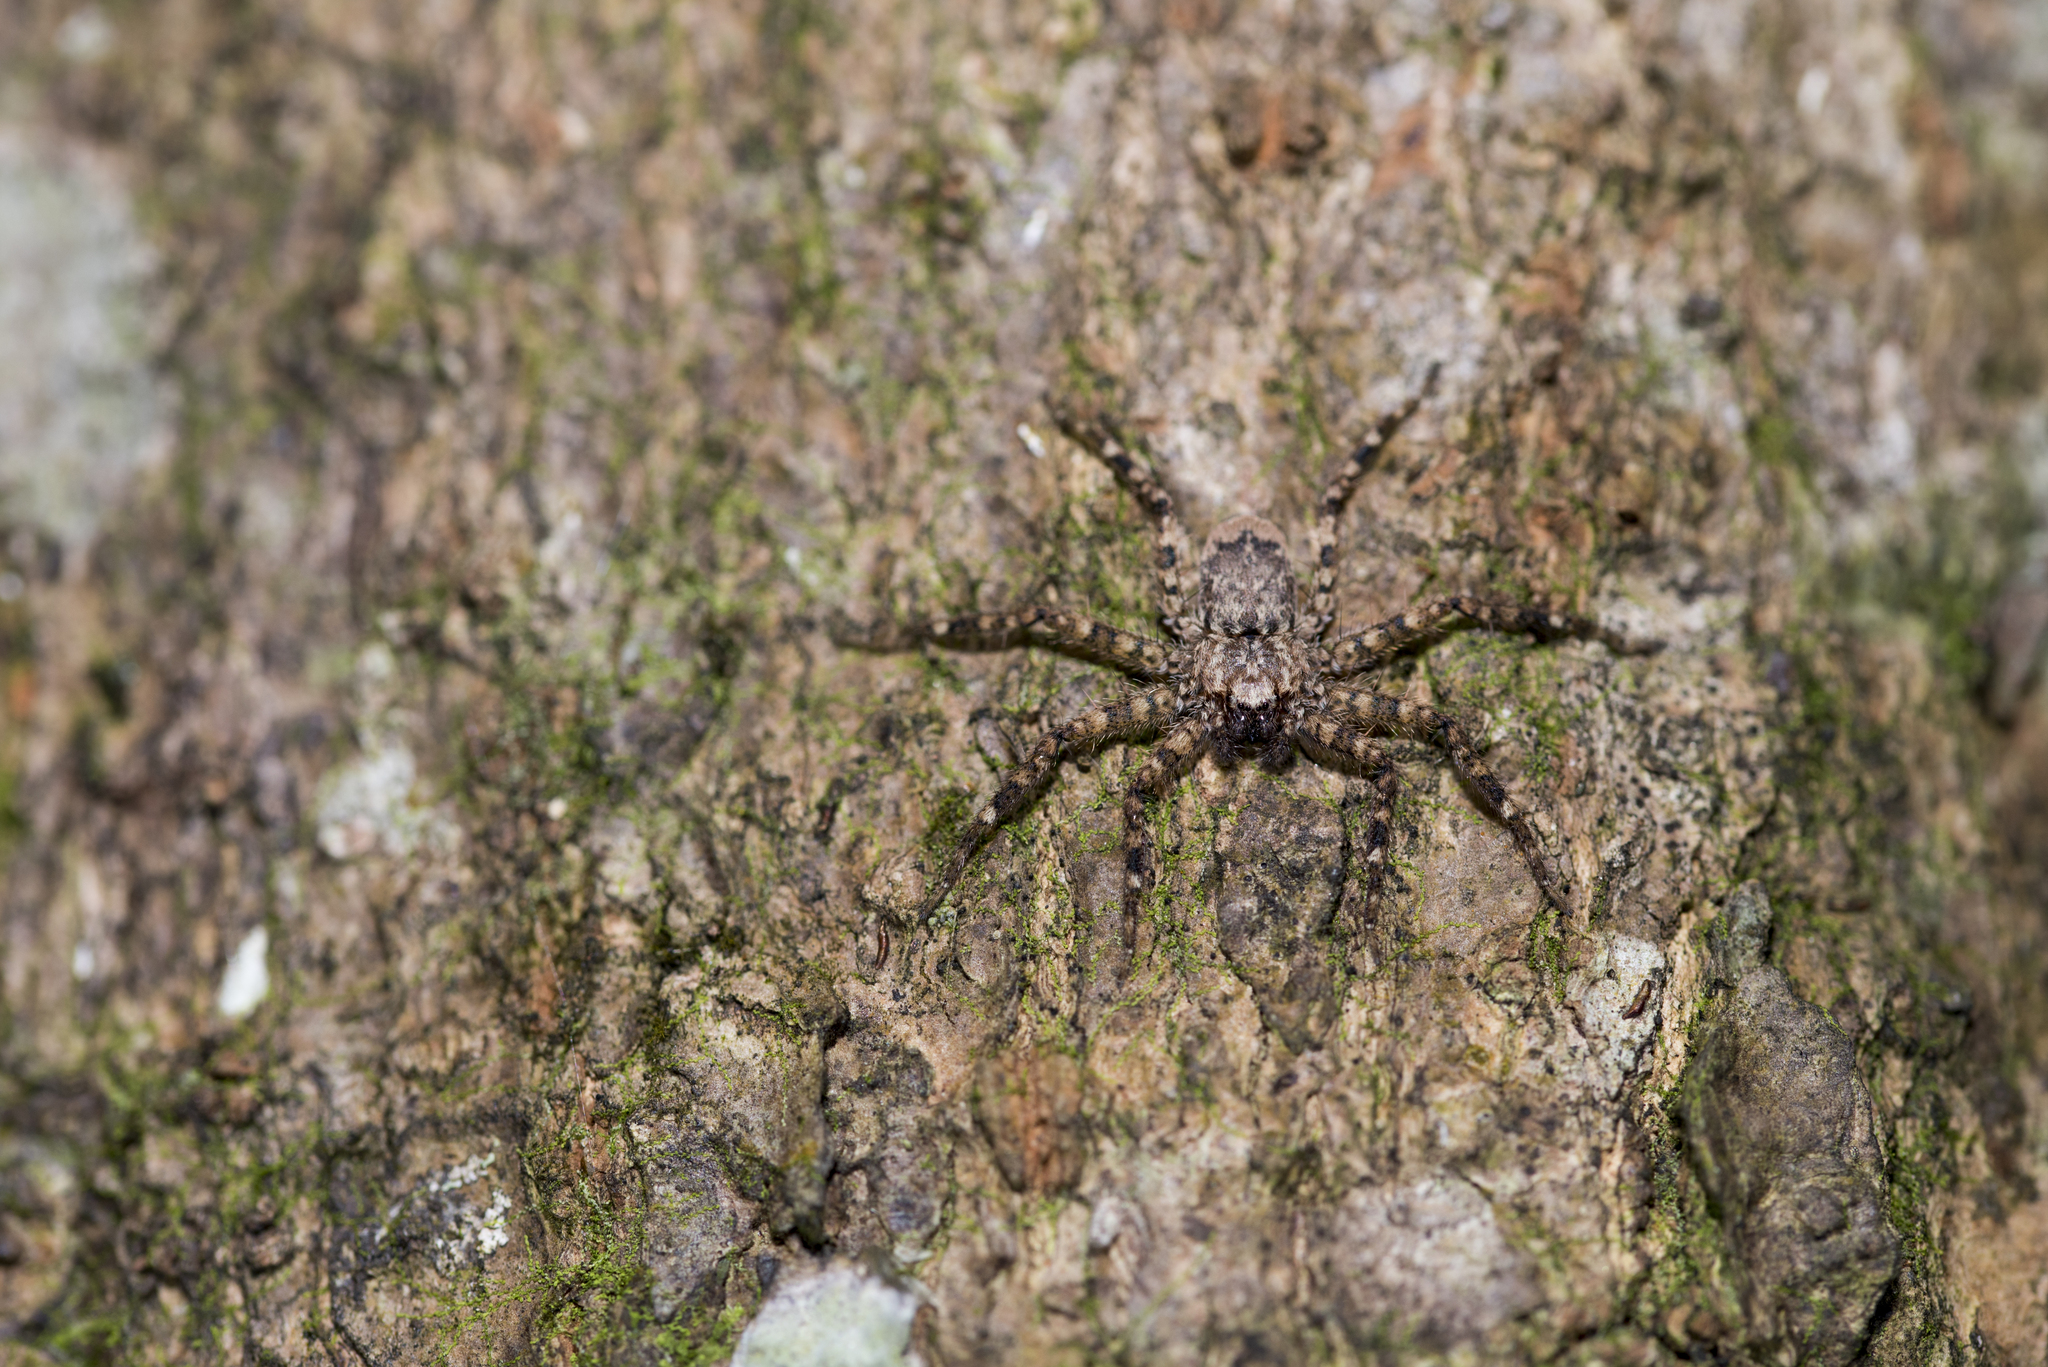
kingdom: Animalia
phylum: Arthropoda
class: Arachnida
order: Araneae
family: Selenopidae
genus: Siamspinops
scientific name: Siamspinops formosensis
